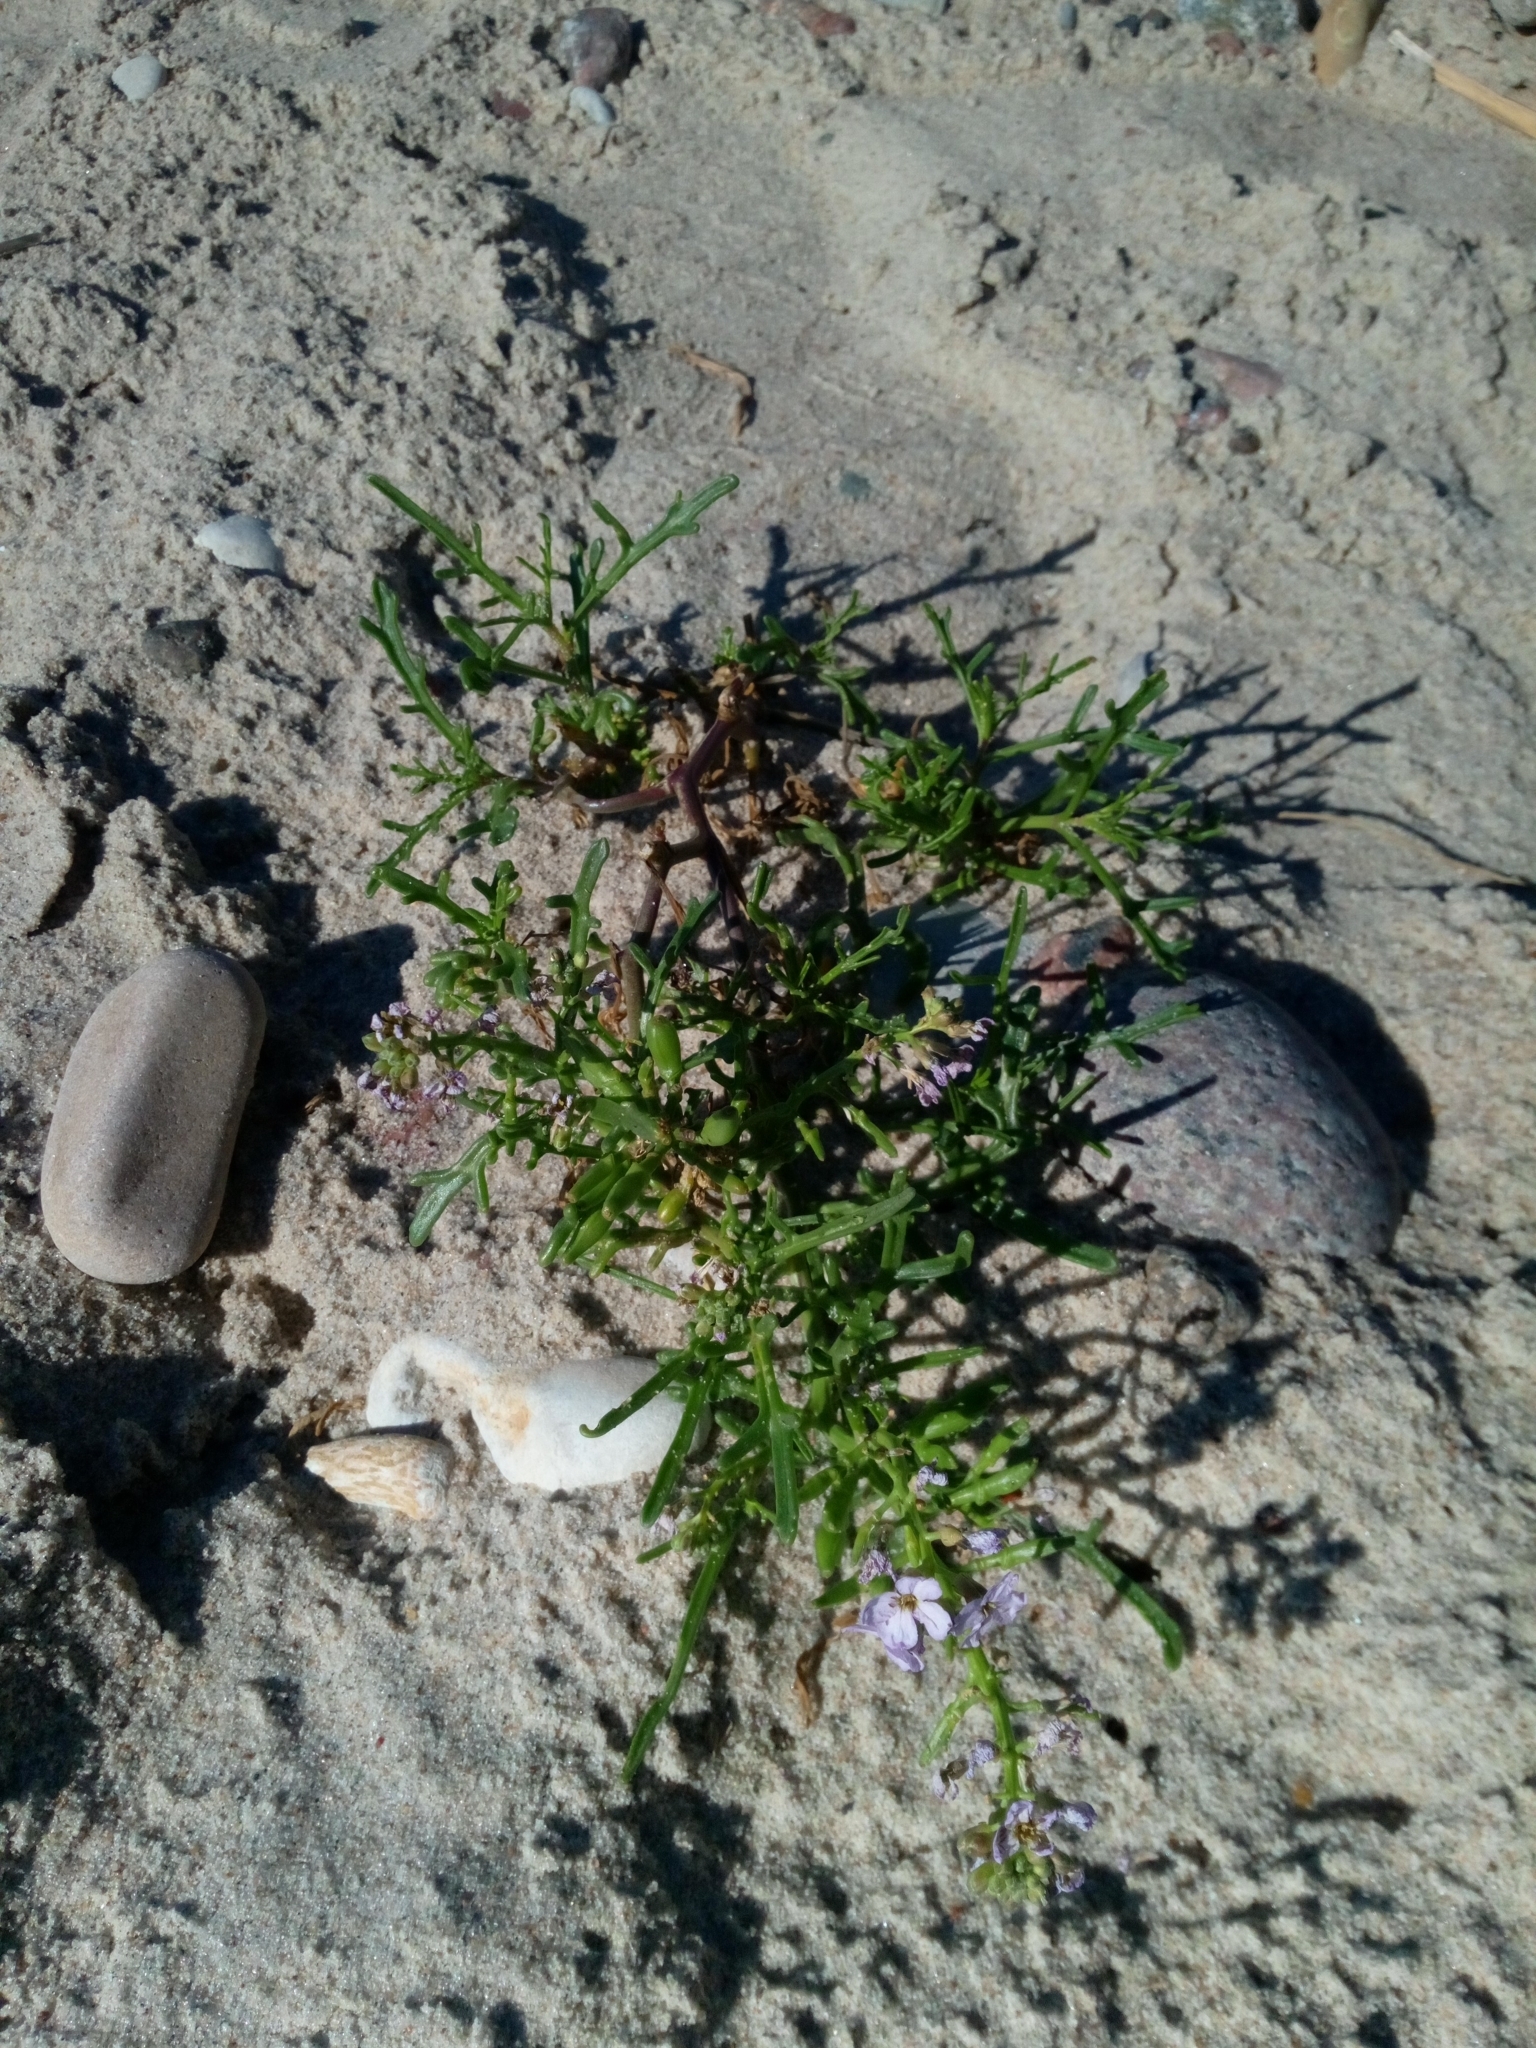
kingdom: Plantae
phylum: Tracheophyta
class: Magnoliopsida
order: Brassicales
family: Brassicaceae
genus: Cakile
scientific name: Cakile maritima
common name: Sea rocket
